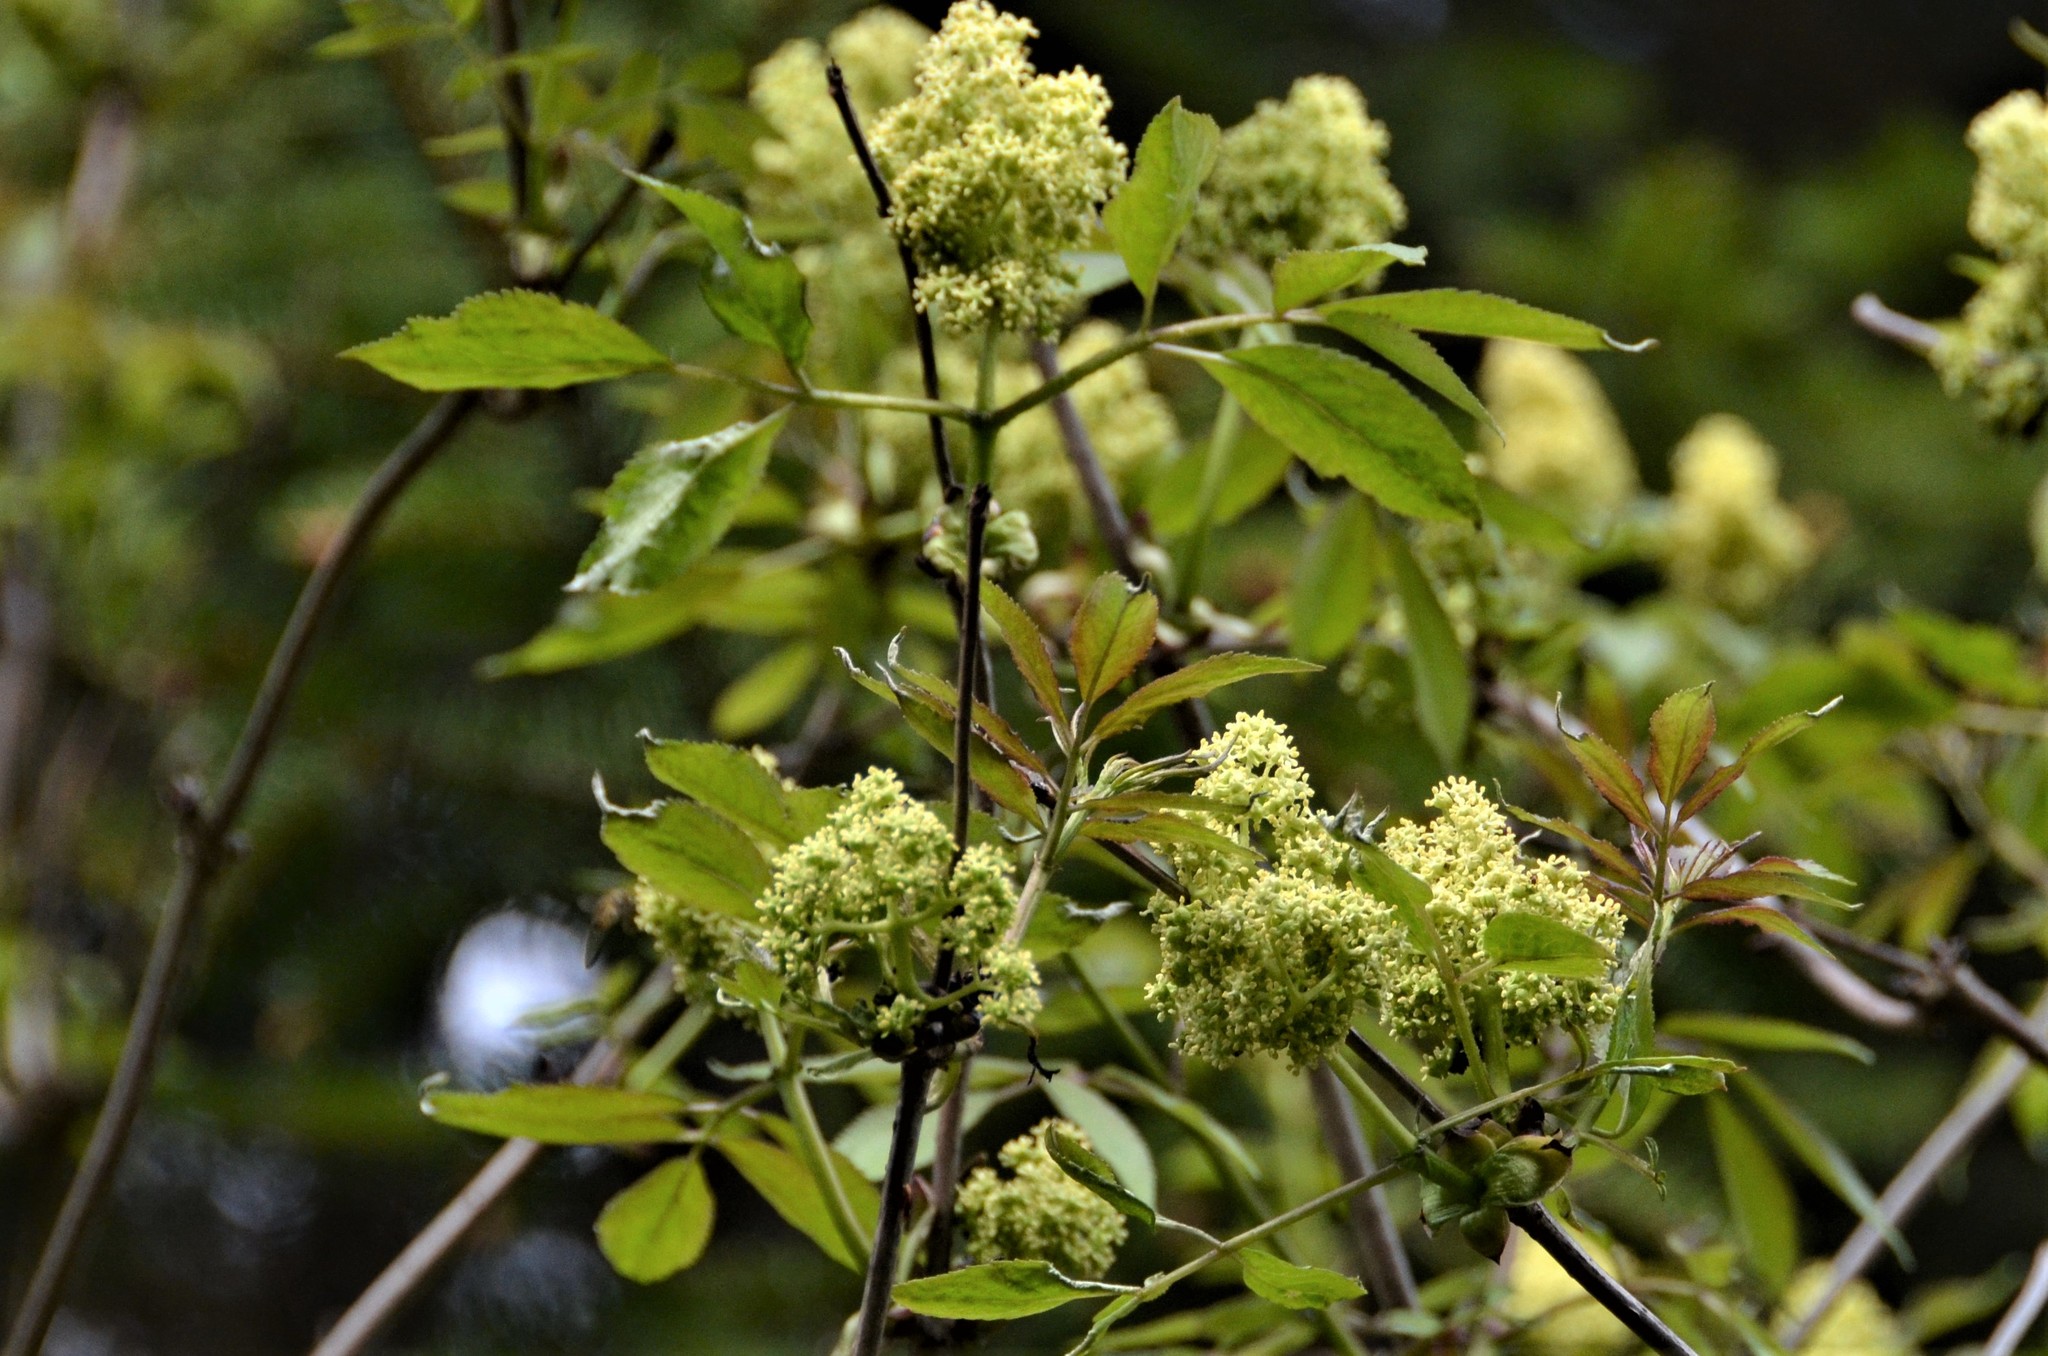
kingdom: Plantae
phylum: Tracheophyta
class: Magnoliopsida
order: Dipsacales
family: Viburnaceae
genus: Sambucus
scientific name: Sambucus racemosa
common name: Red-berried elder
